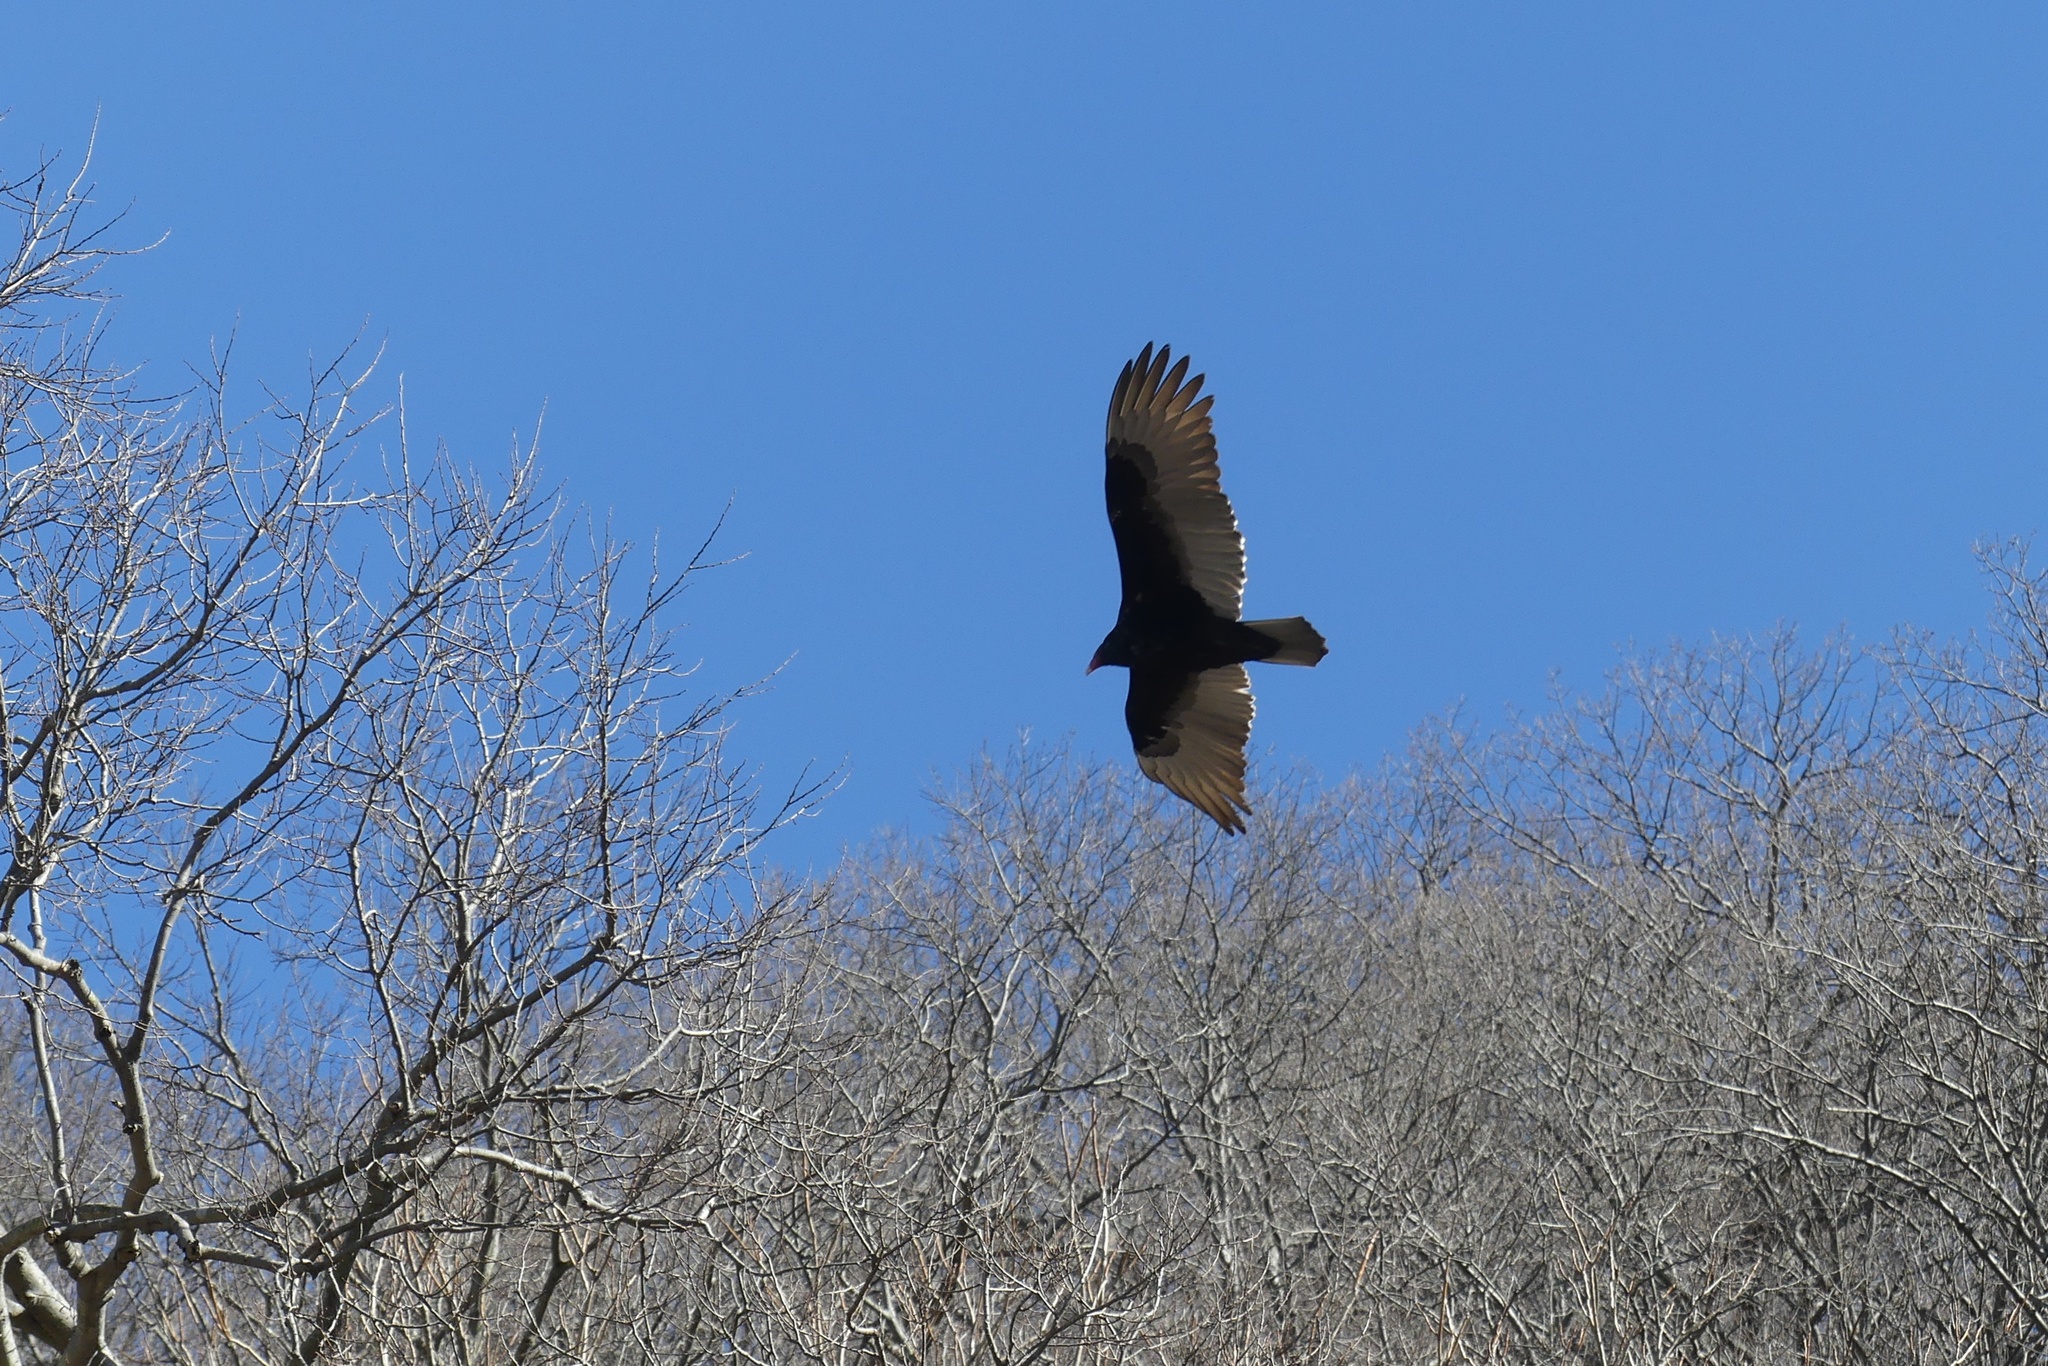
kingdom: Animalia
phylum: Chordata
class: Aves
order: Accipitriformes
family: Cathartidae
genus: Cathartes
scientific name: Cathartes aura
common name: Turkey vulture
